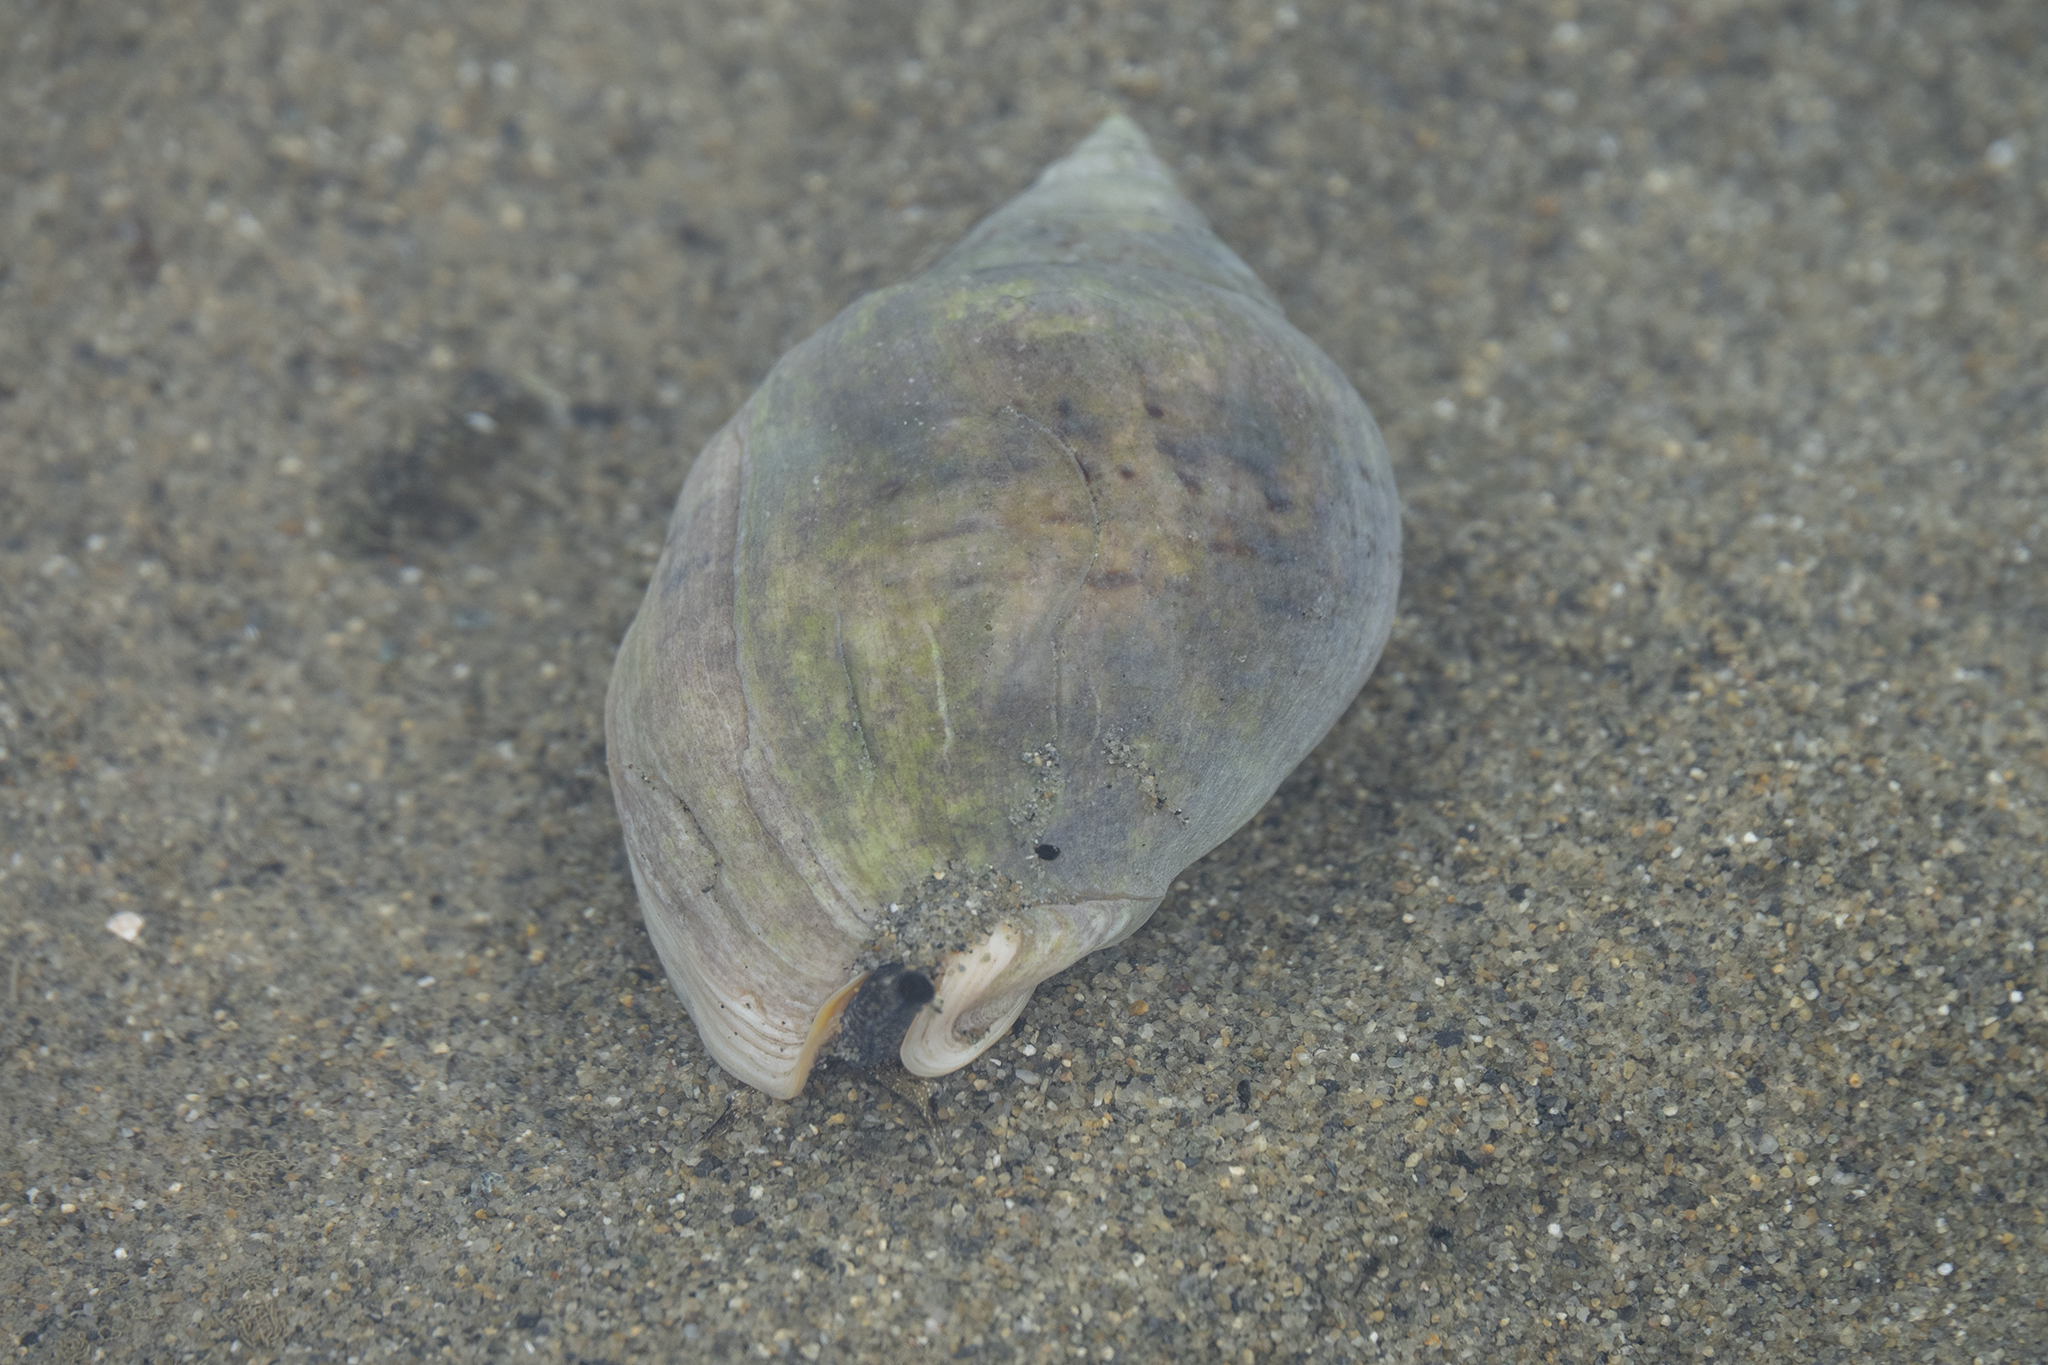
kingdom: Animalia
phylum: Mollusca
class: Gastropoda
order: Neogastropoda
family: Cominellidae
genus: Cominella
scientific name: Cominella adspersa
